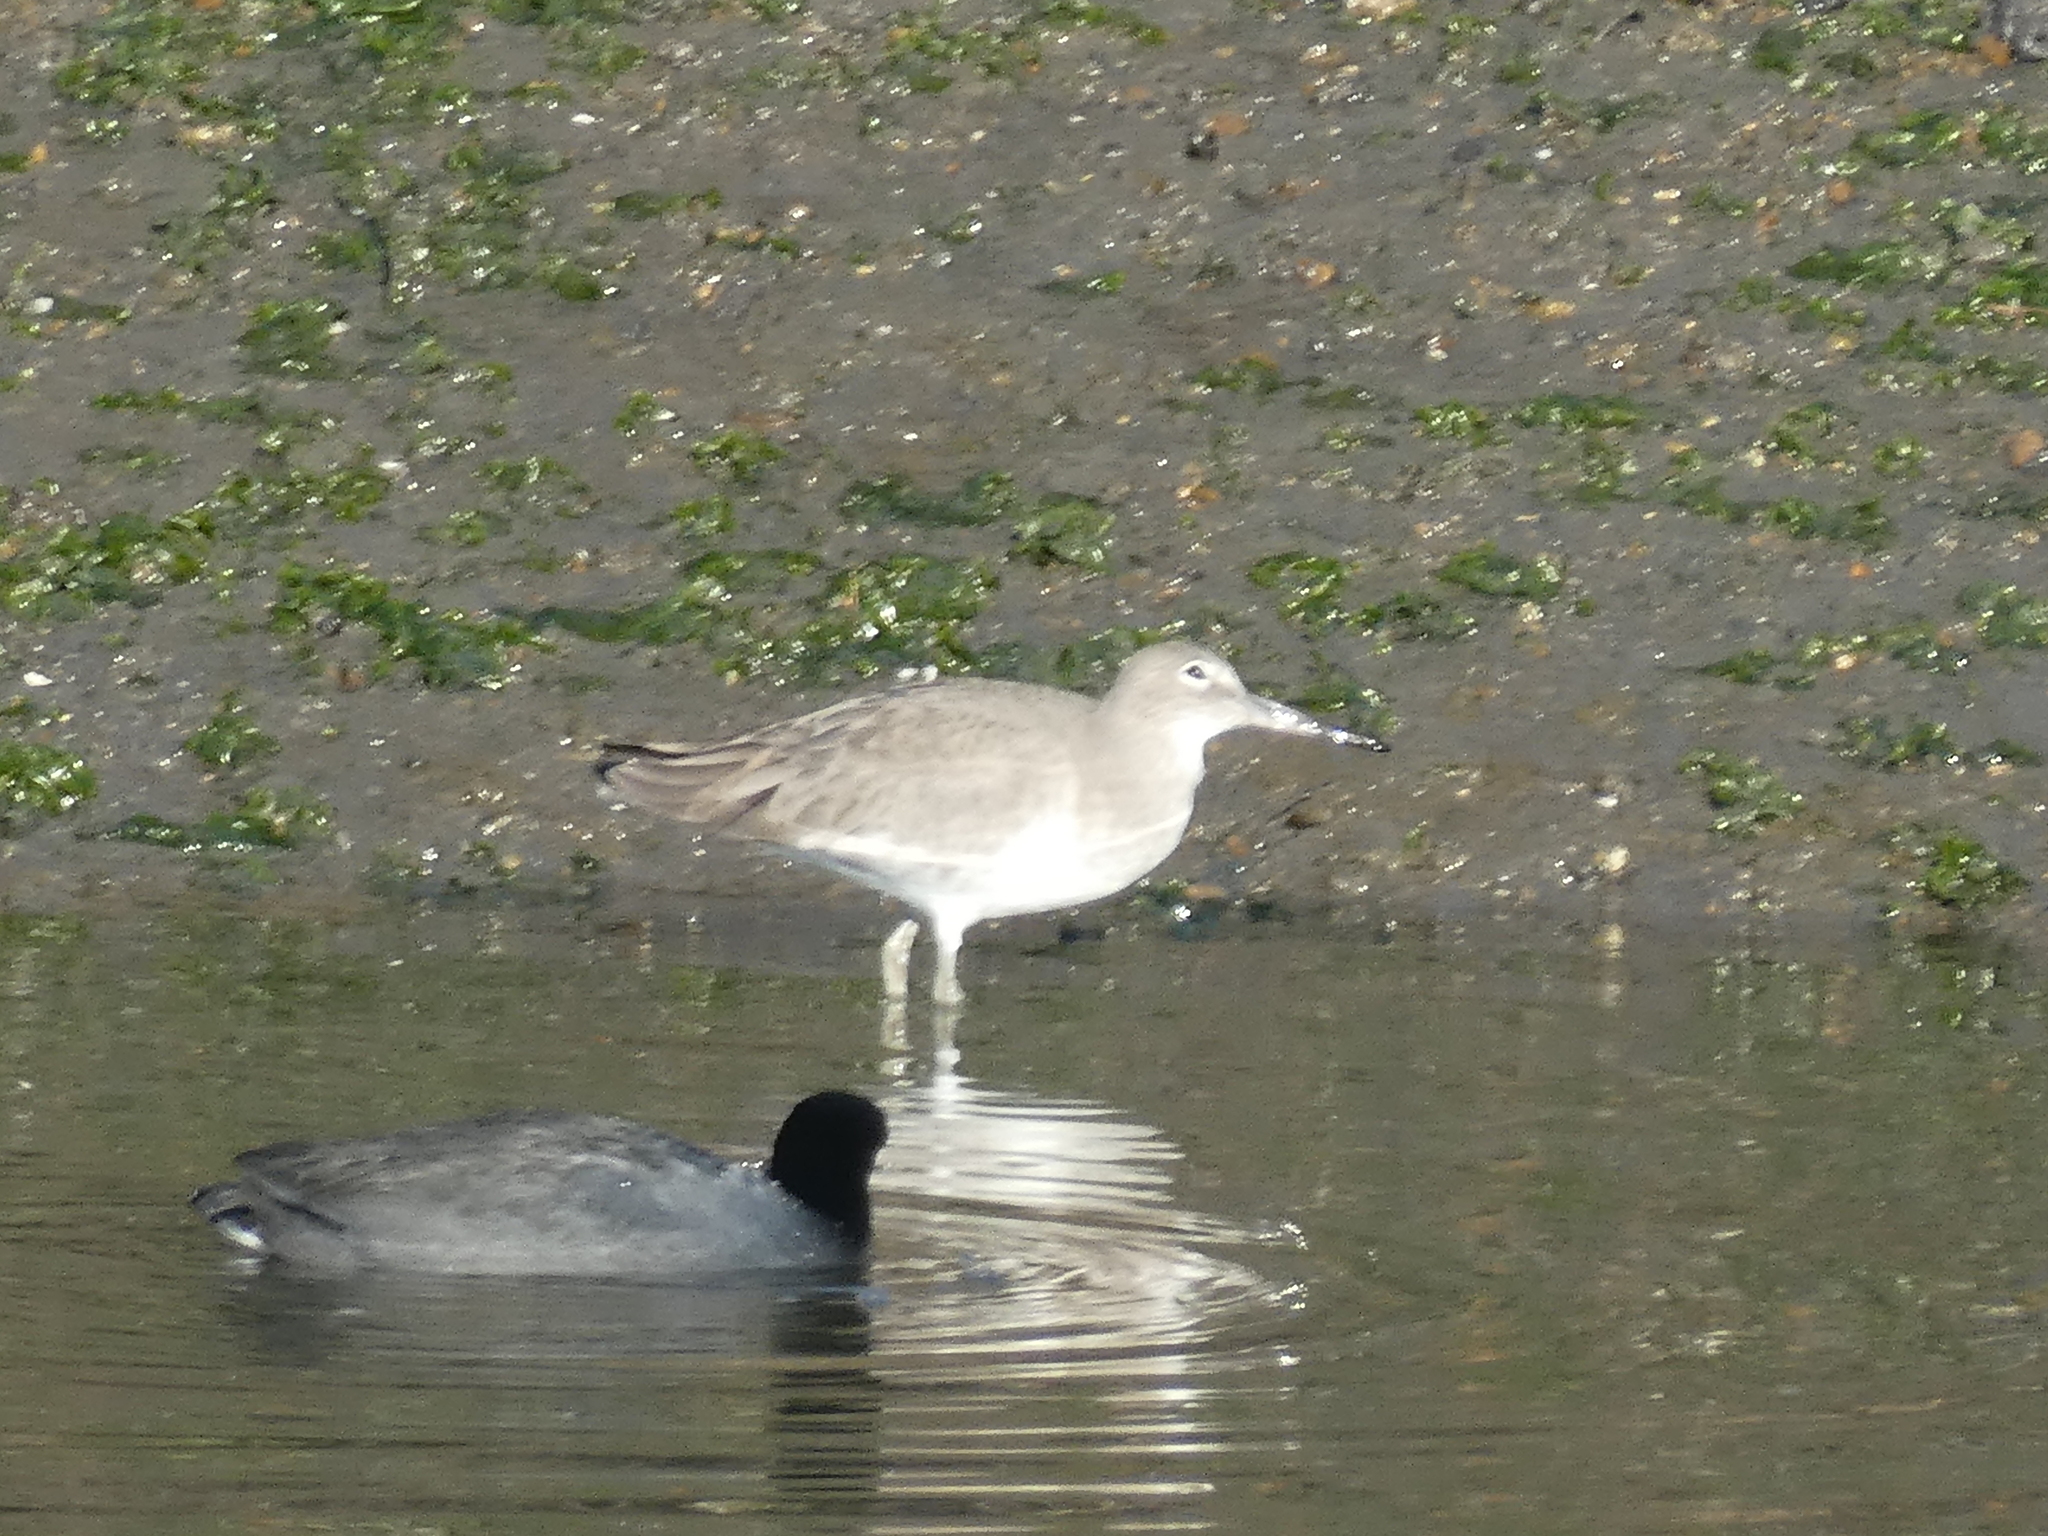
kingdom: Animalia
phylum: Chordata
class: Aves
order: Charadriiformes
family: Scolopacidae
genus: Tringa
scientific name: Tringa semipalmata
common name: Willet
